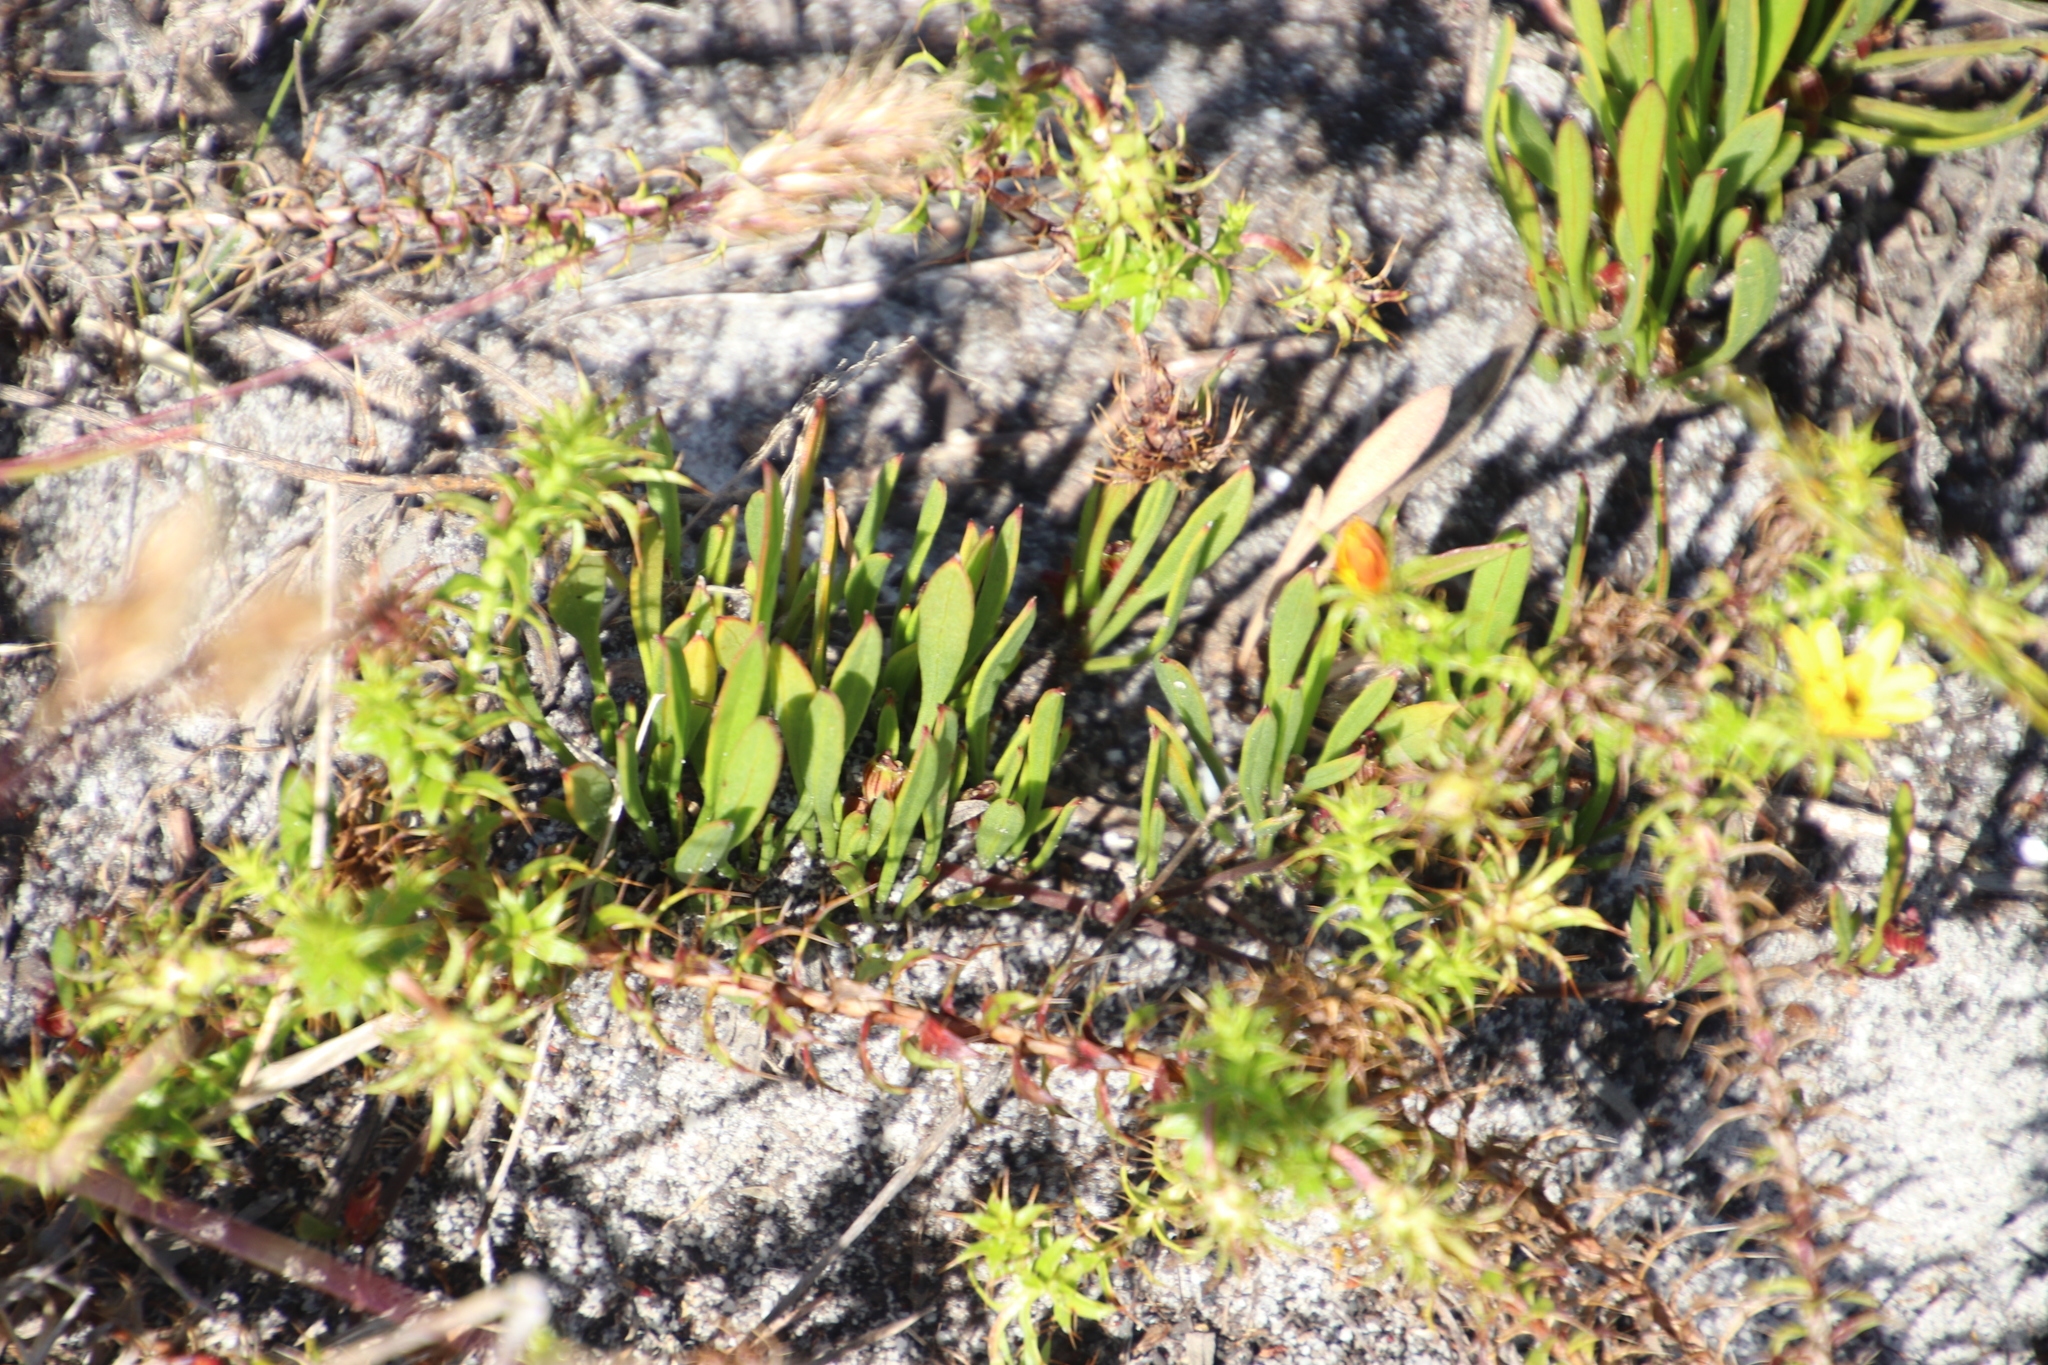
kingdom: Plantae
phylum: Tracheophyta
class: Magnoliopsida
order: Apiales
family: Apiaceae
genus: Centella
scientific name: Centella glabrata
